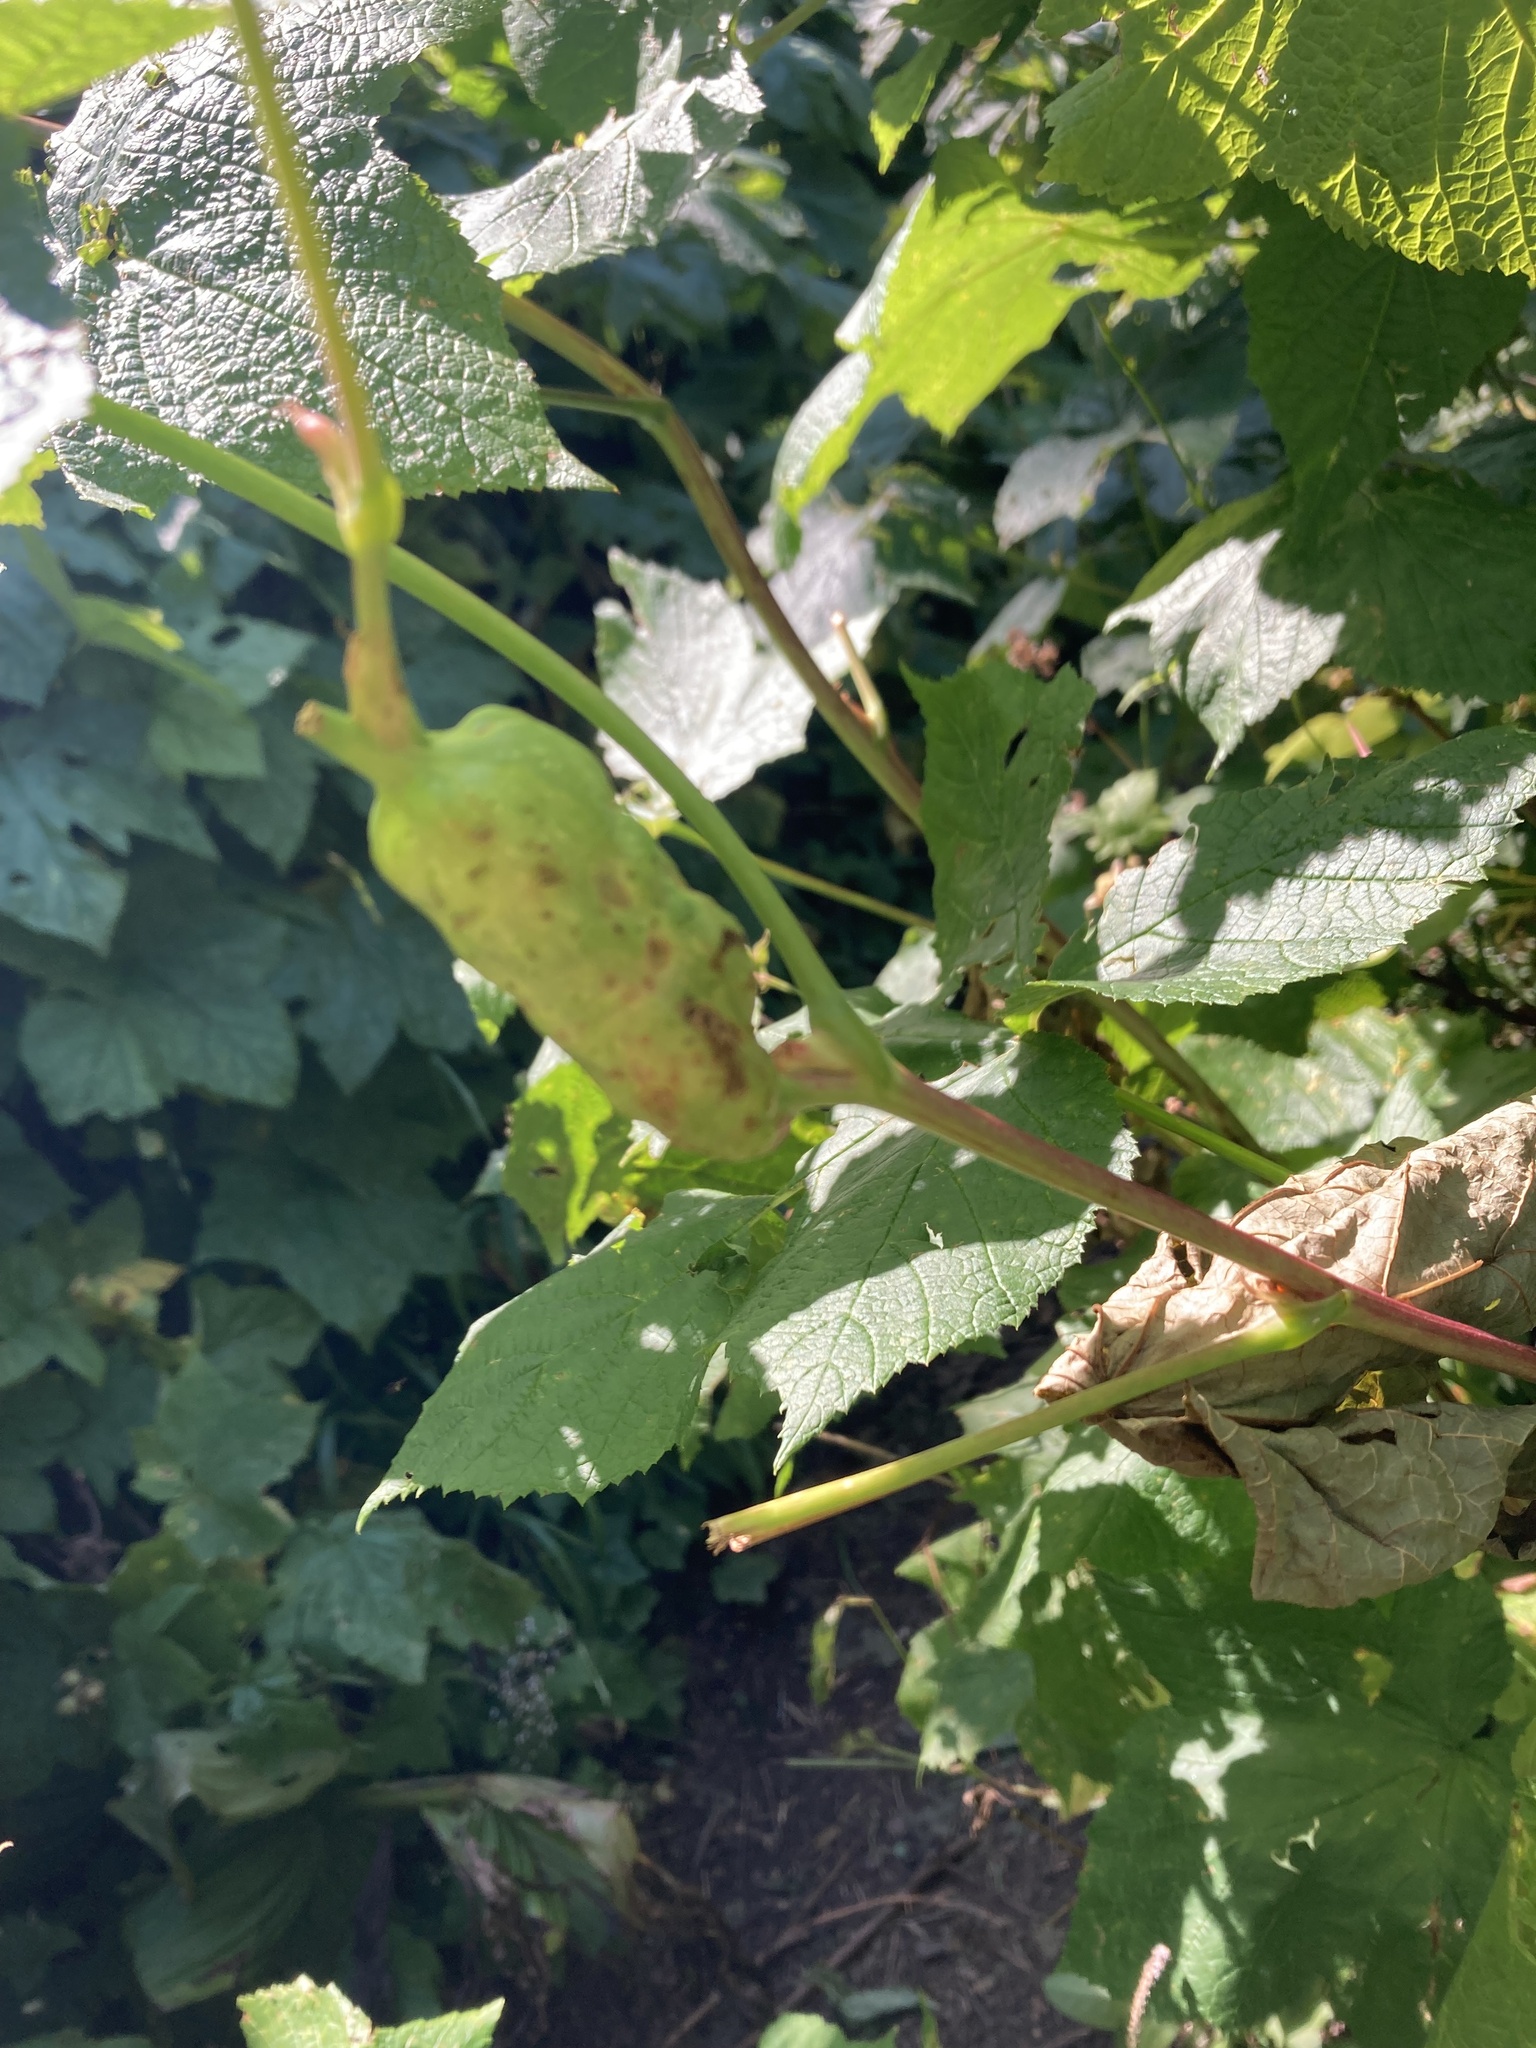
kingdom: Animalia
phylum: Arthropoda
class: Insecta
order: Hymenoptera
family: Cynipidae
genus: Diastrophus
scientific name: Diastrophus
